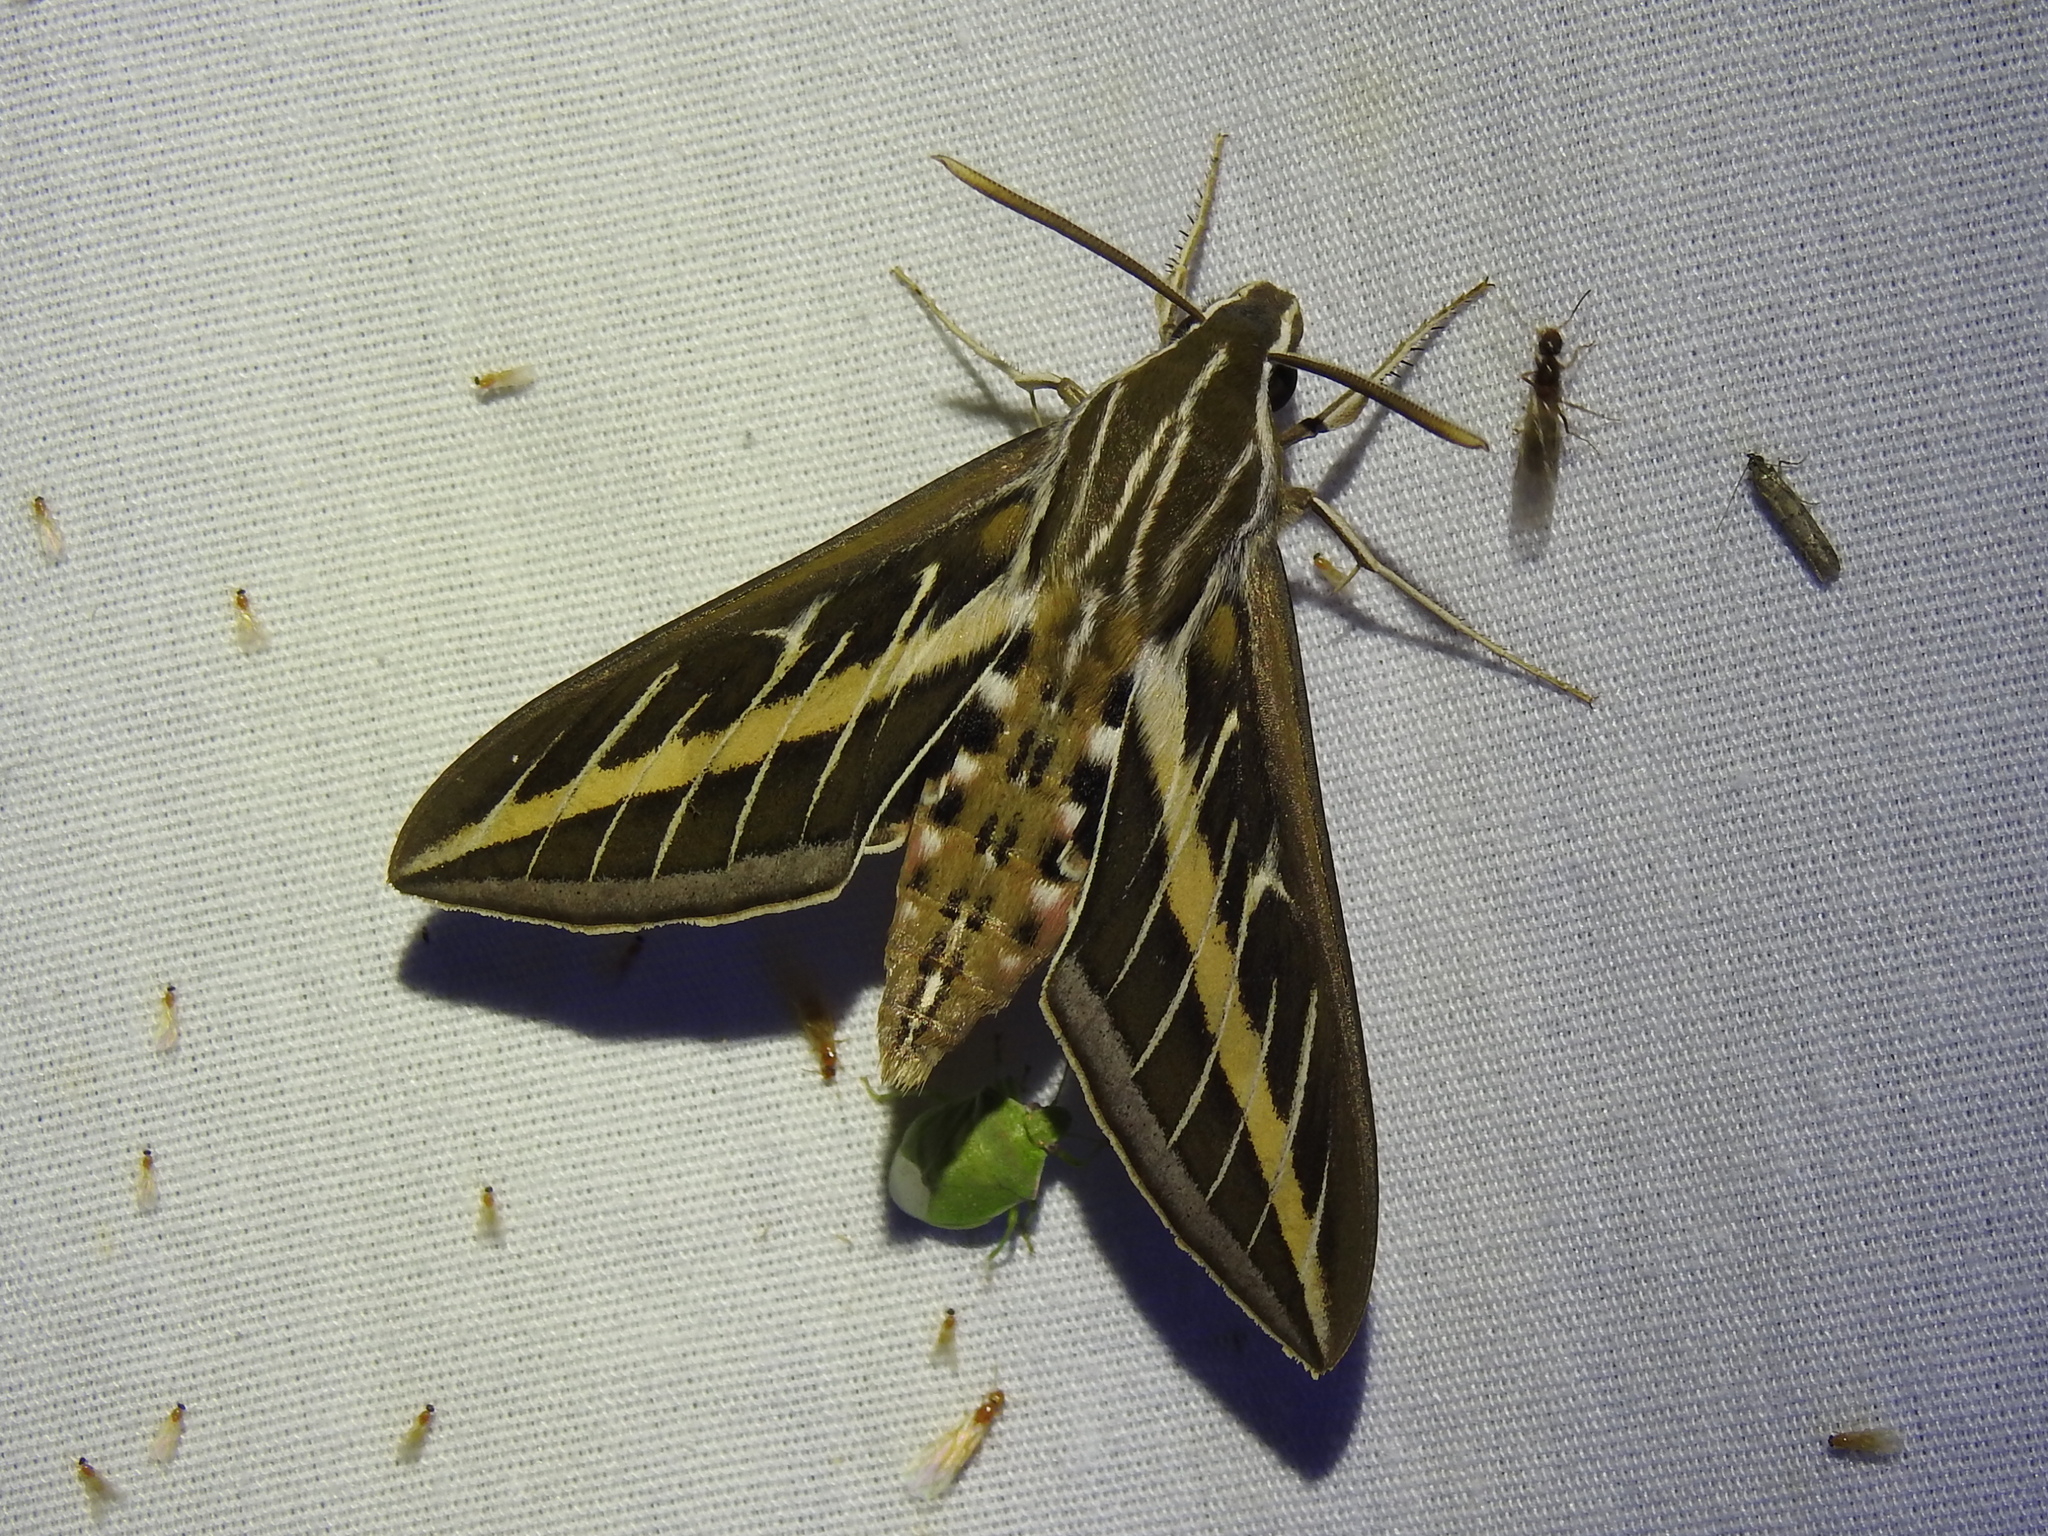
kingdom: Animalia
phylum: Arthropoda
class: Insecta
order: Lepidoptera
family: Sphingidae
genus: Hyles
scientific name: Hyles lineata
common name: White-lined sphinx
